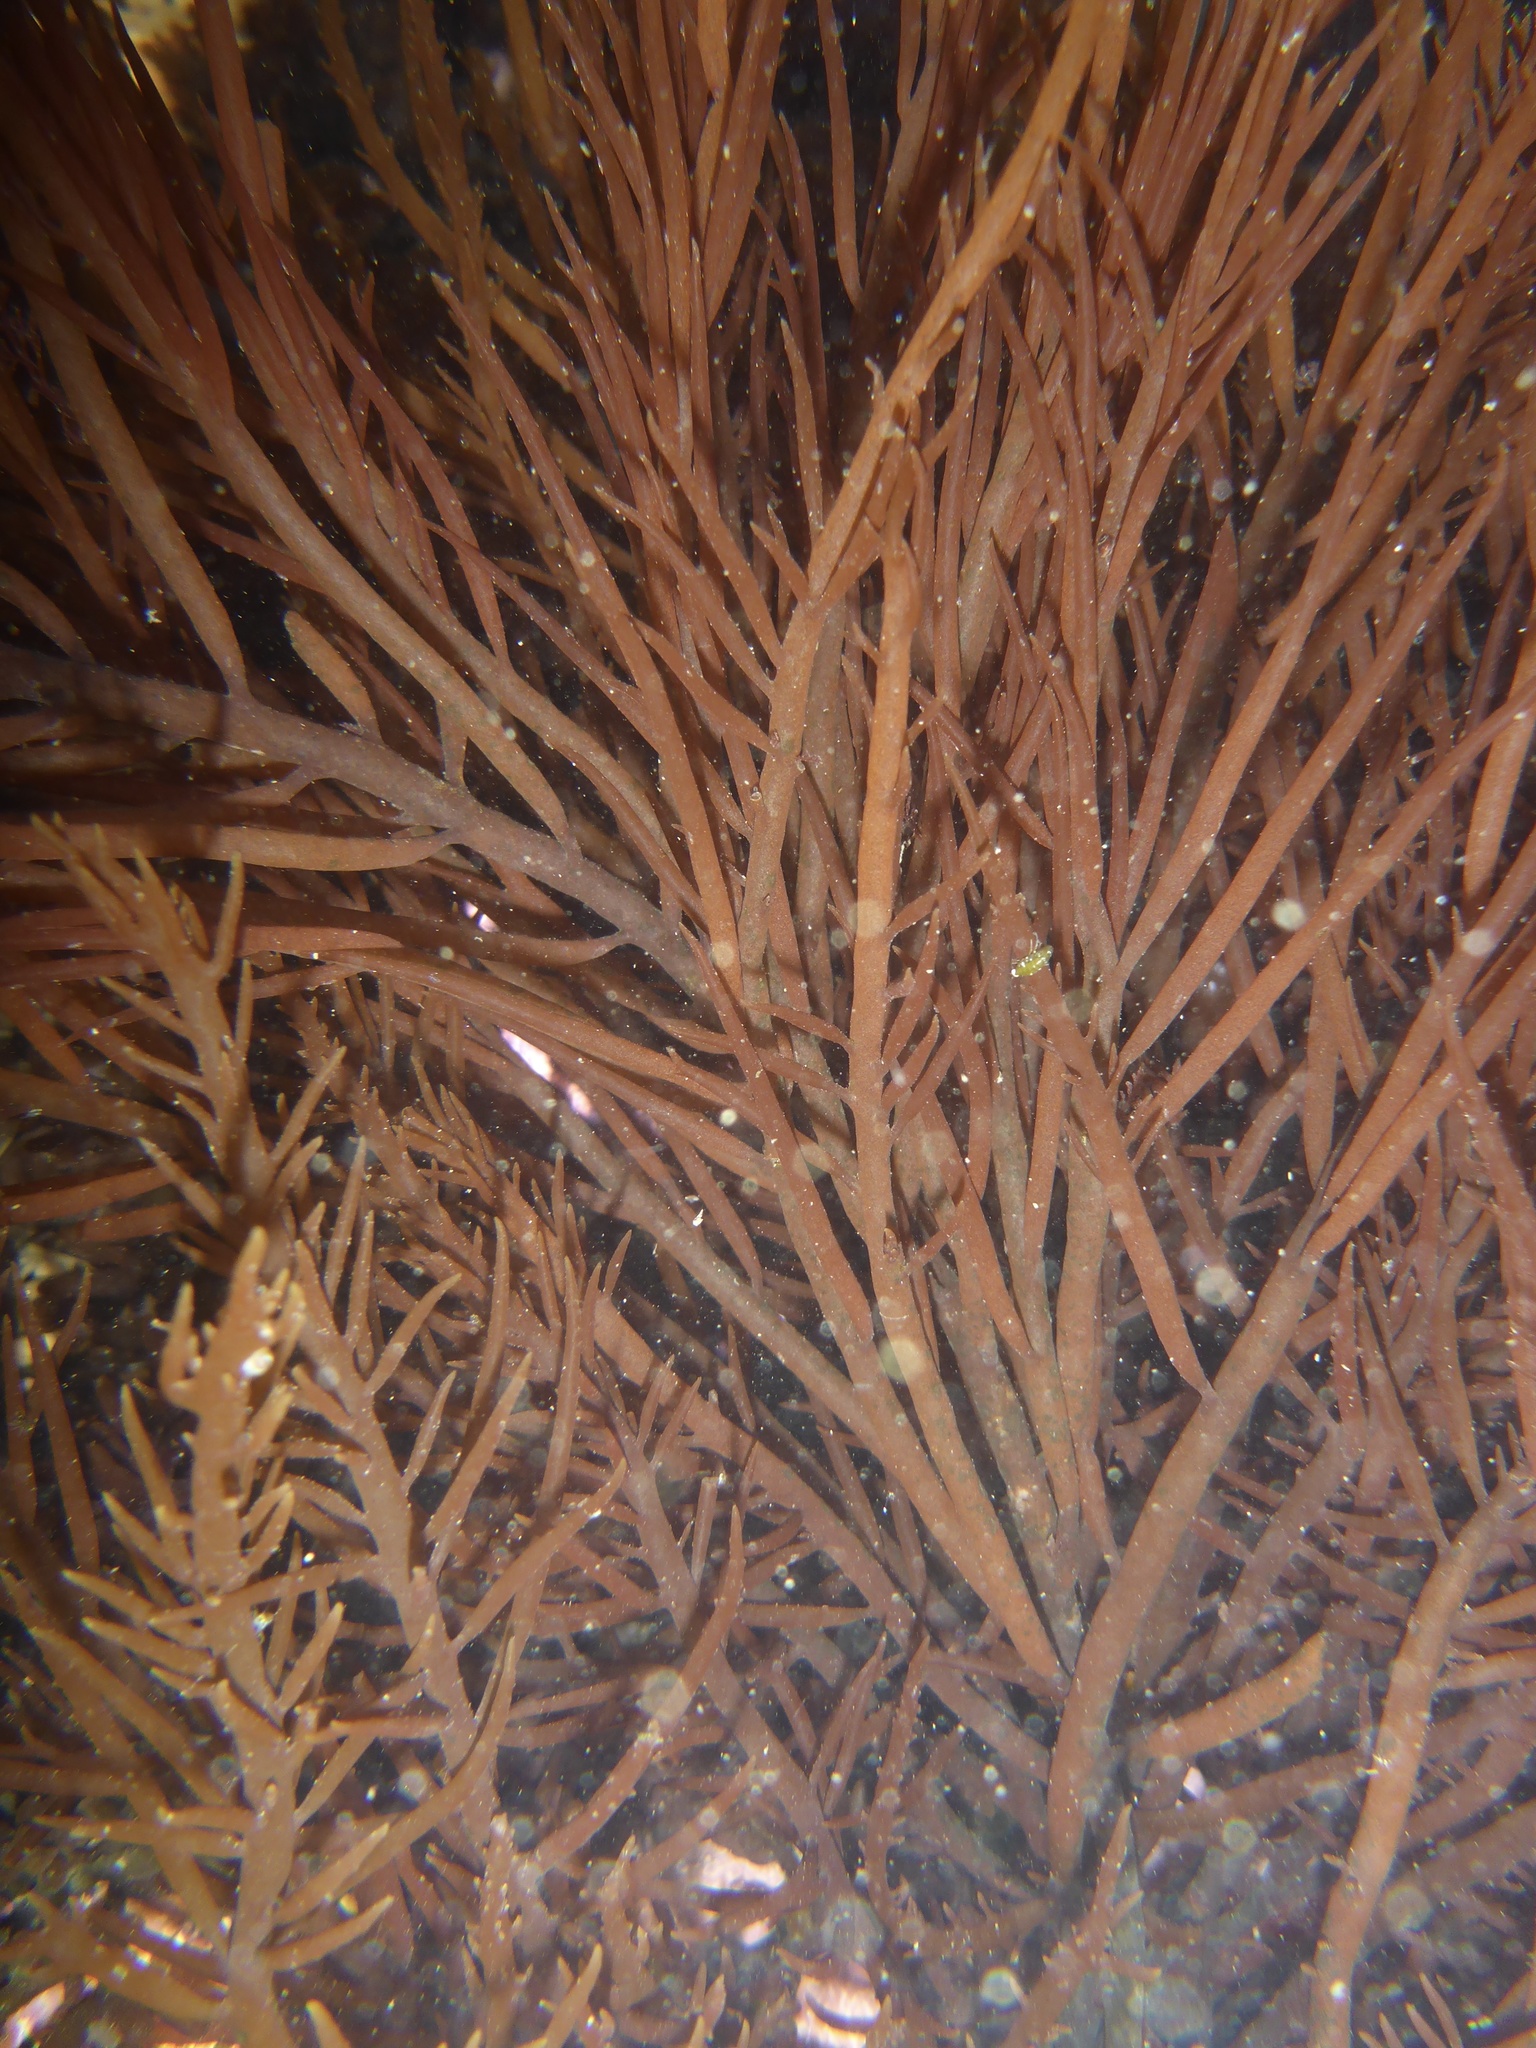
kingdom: Plantae
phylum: Rhodophyta
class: Florideophyceae
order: Gigartinales
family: Solieriaceae
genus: Sarcodiotheca
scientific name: Sarcodiotheca gaudichaudii
